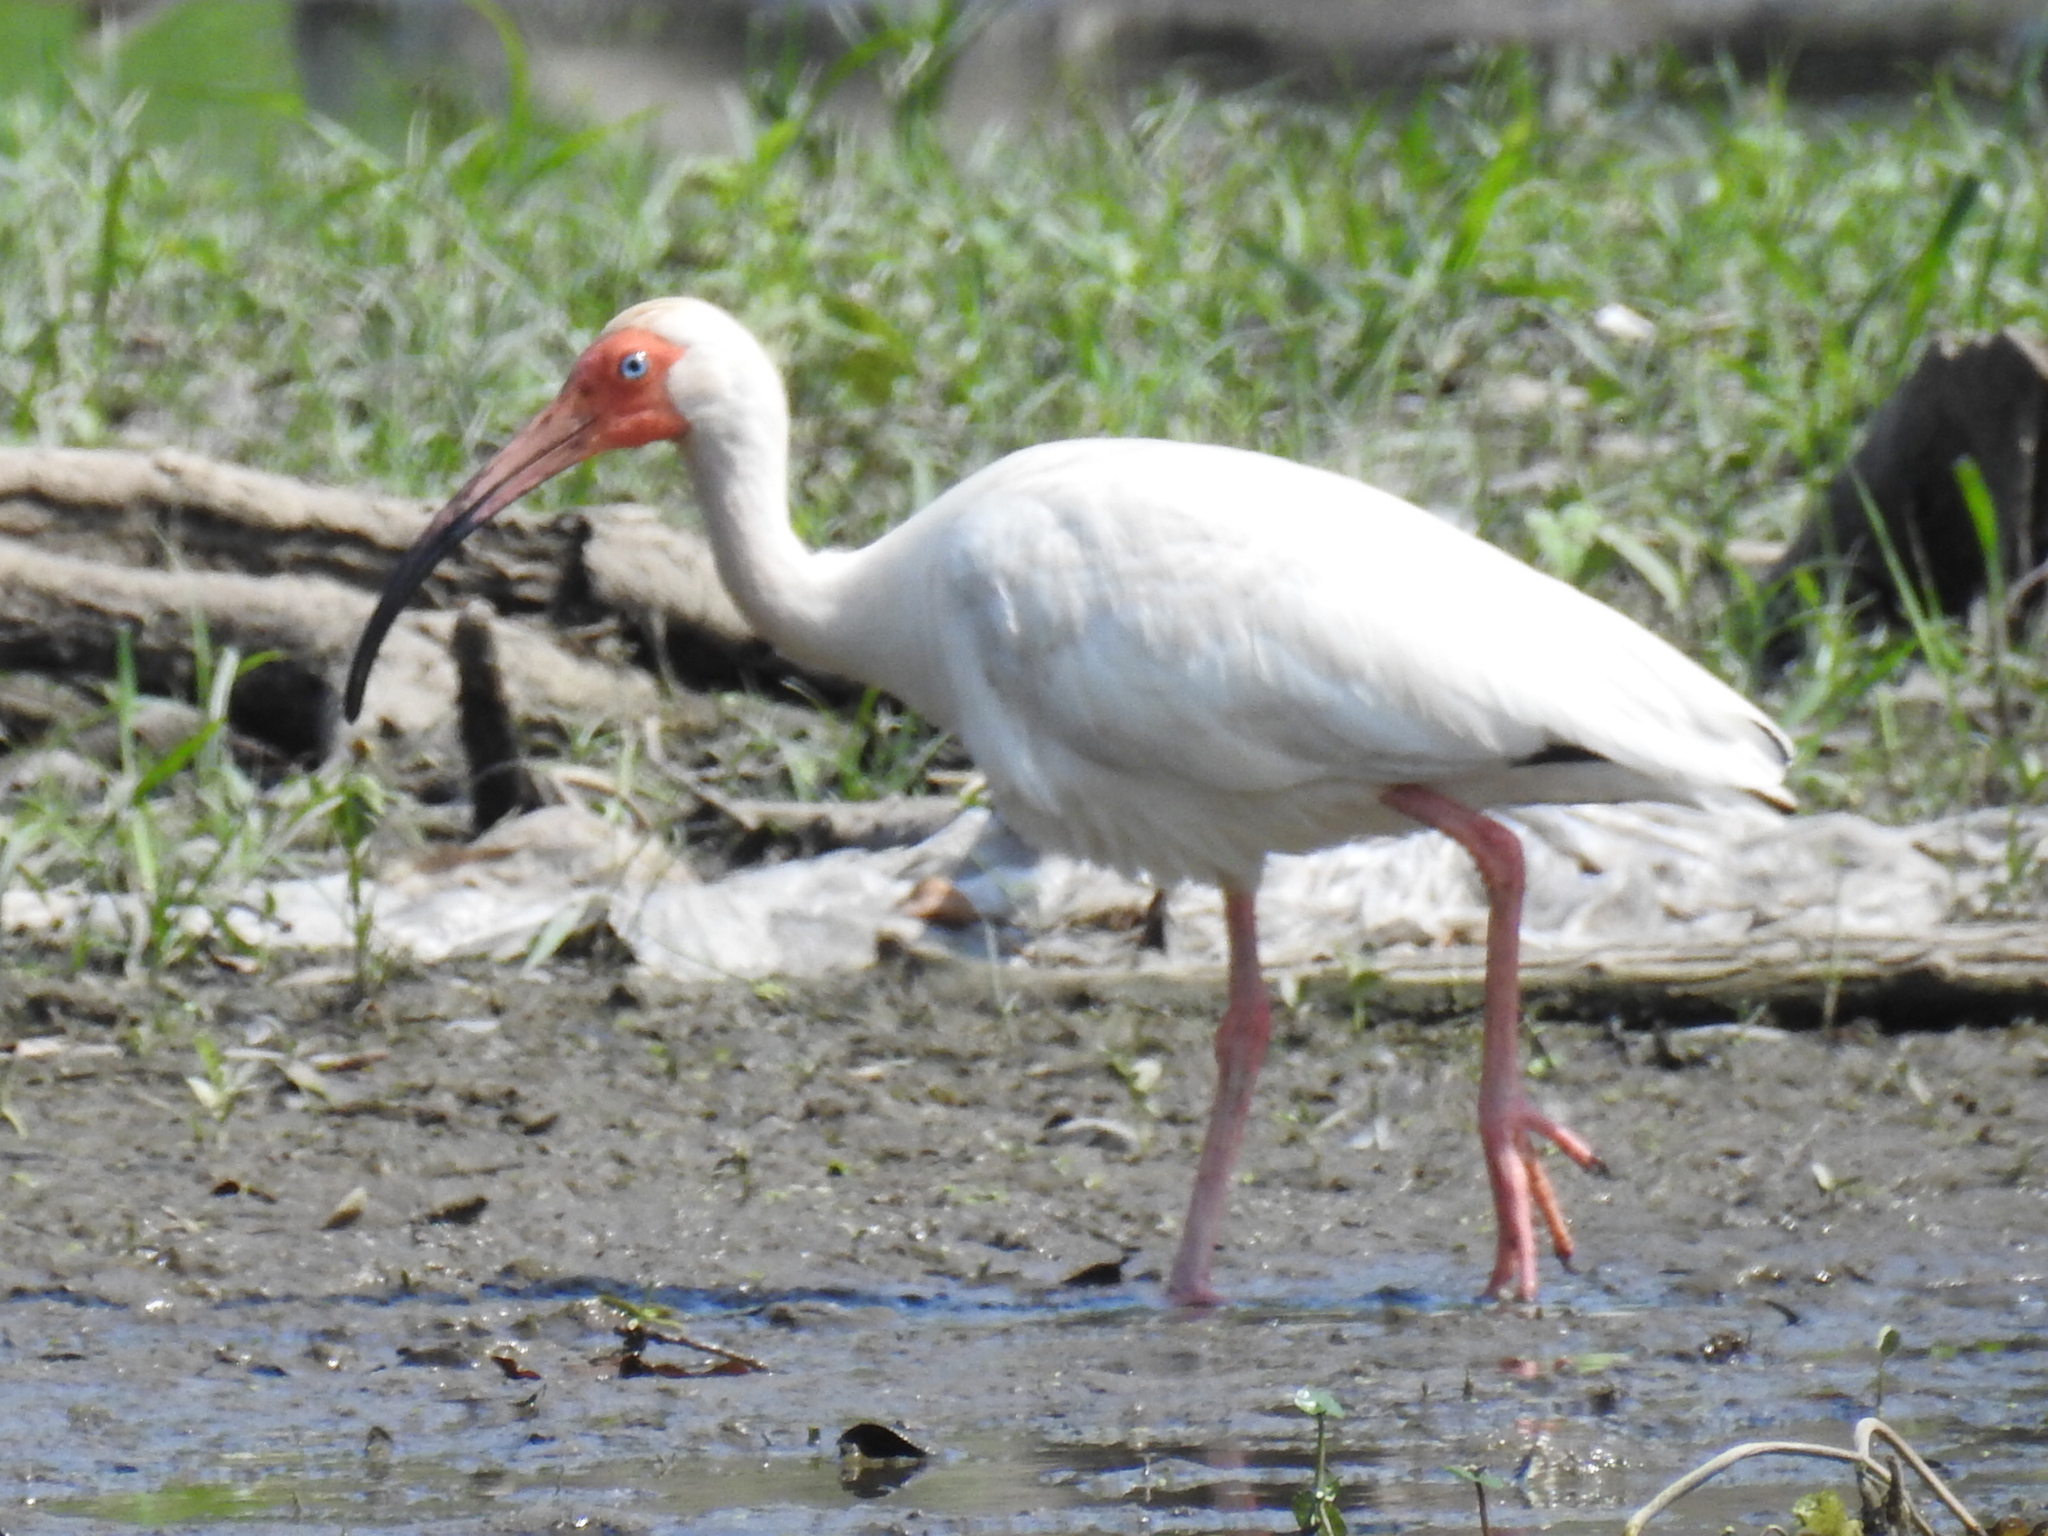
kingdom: Animalia
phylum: Chordata
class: Aves
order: Pelecaniformes
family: Threskiornithidae
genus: Eudocimus
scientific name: Eudocimus albus
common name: White ibis
